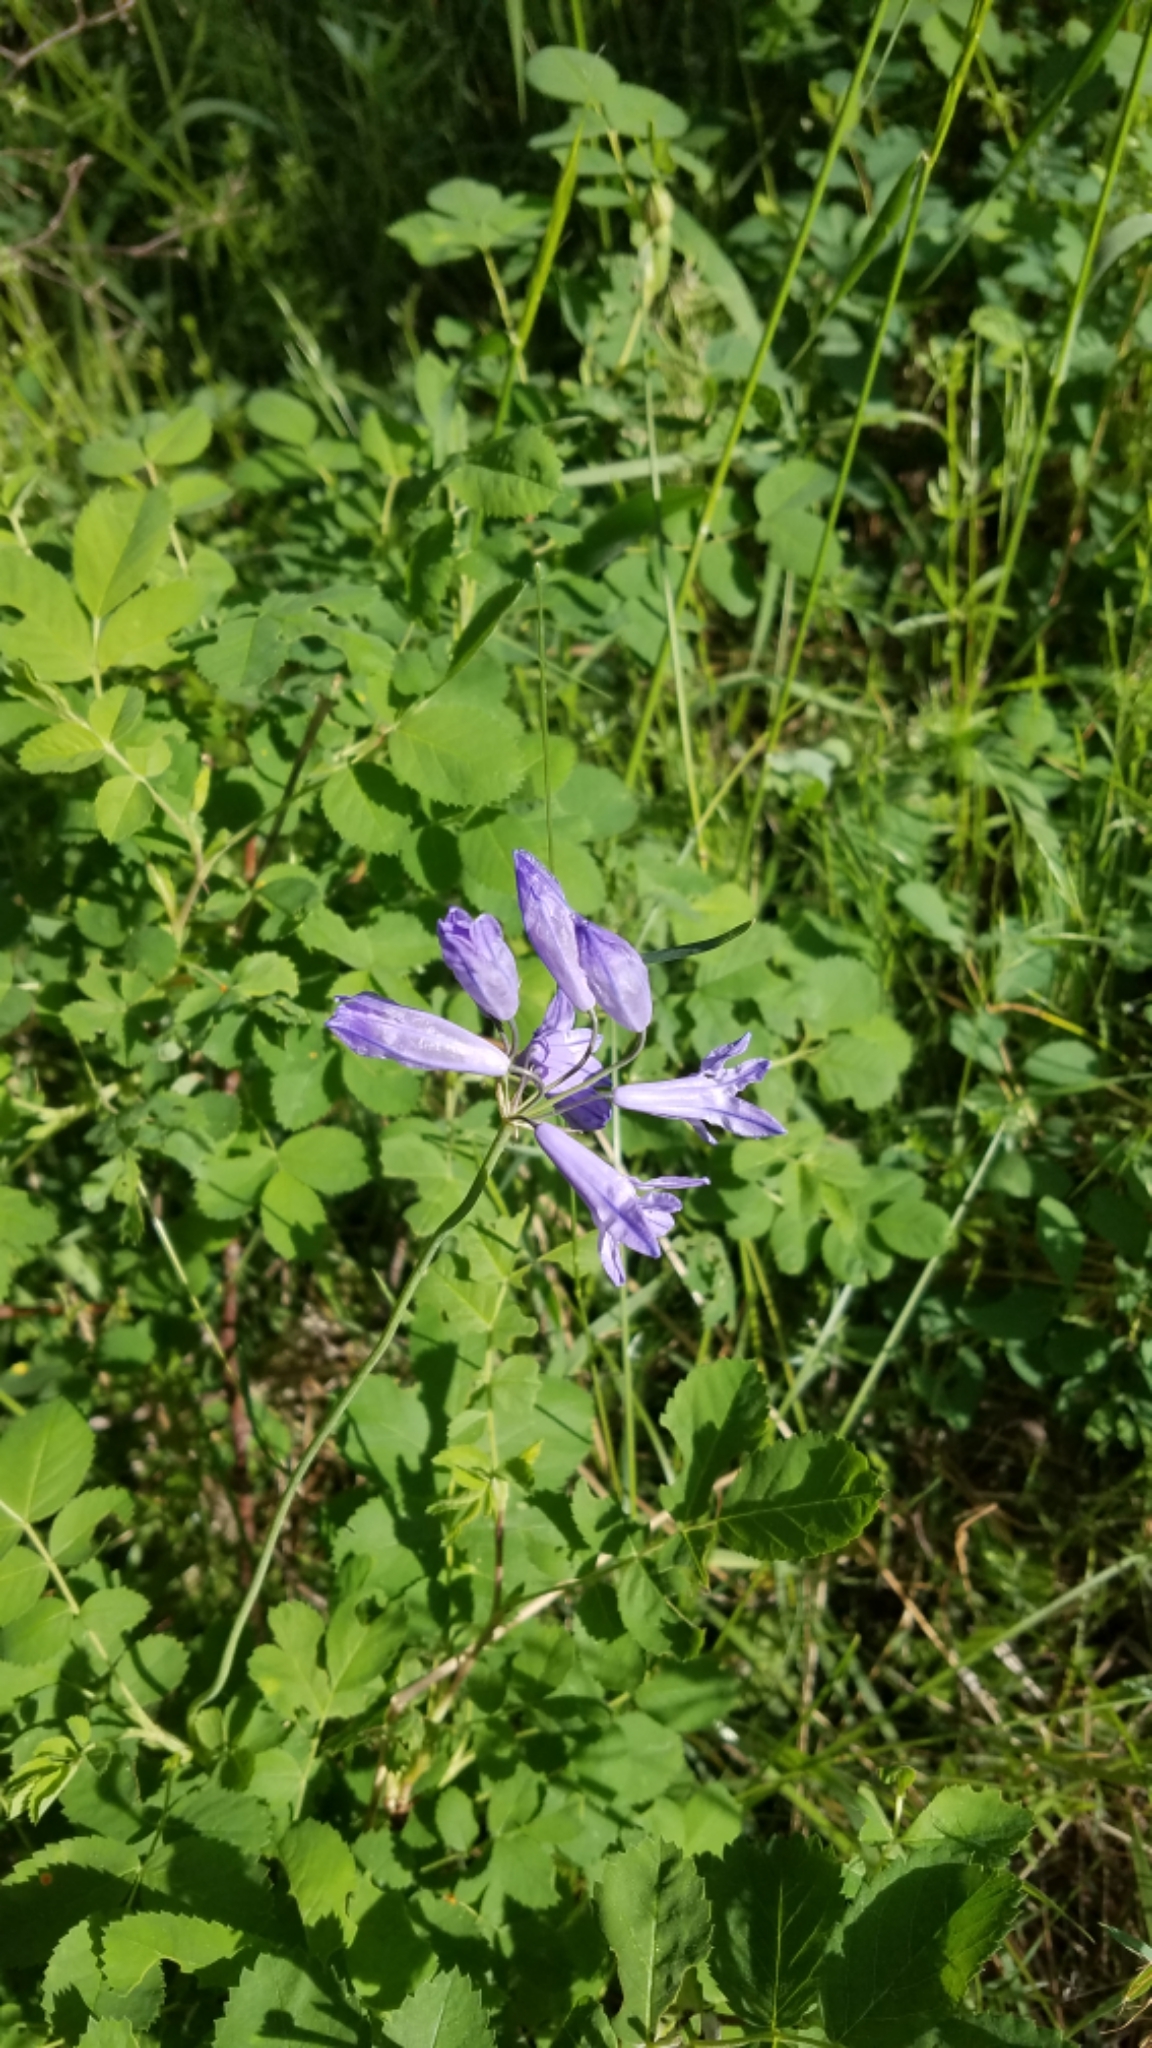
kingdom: Plantae
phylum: Tracheophyta
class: Liliopsida
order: Asparagales
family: Asparagaceae
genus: Triteleia
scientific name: Triteleia grandiflora
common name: Wild hyacinth
